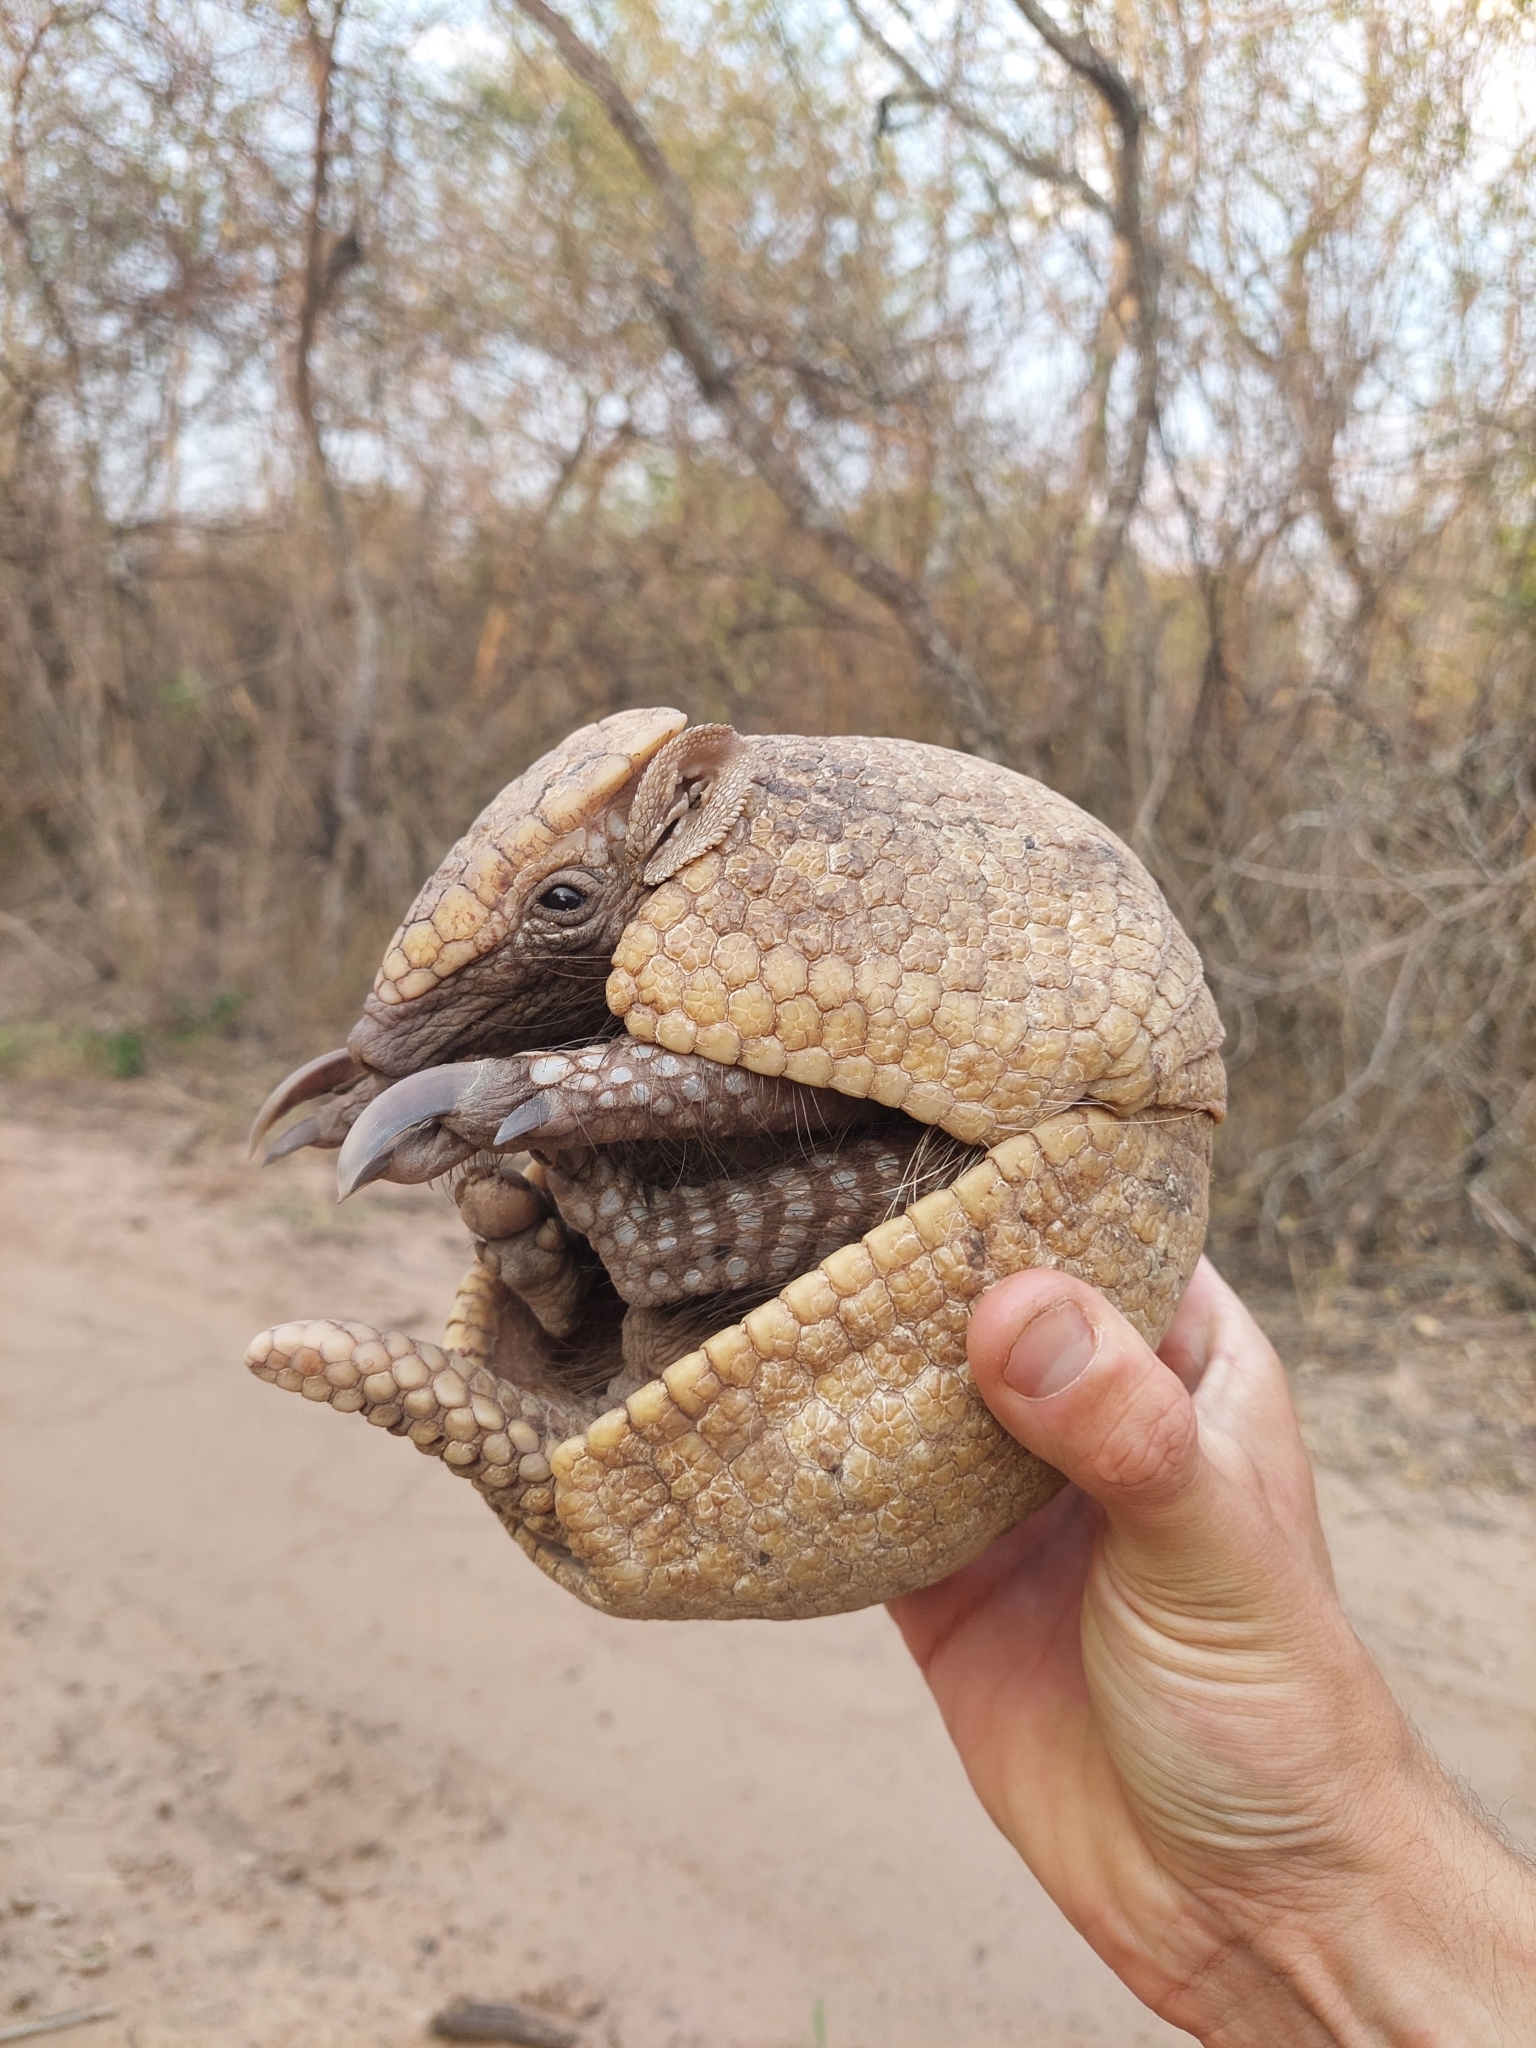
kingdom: Animalia
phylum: Chordata
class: Mammalia
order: Cingulata
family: Dasypodidae
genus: Tolypeutes
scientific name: Tolypeutes matacus
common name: Southern three-banded armadillo
